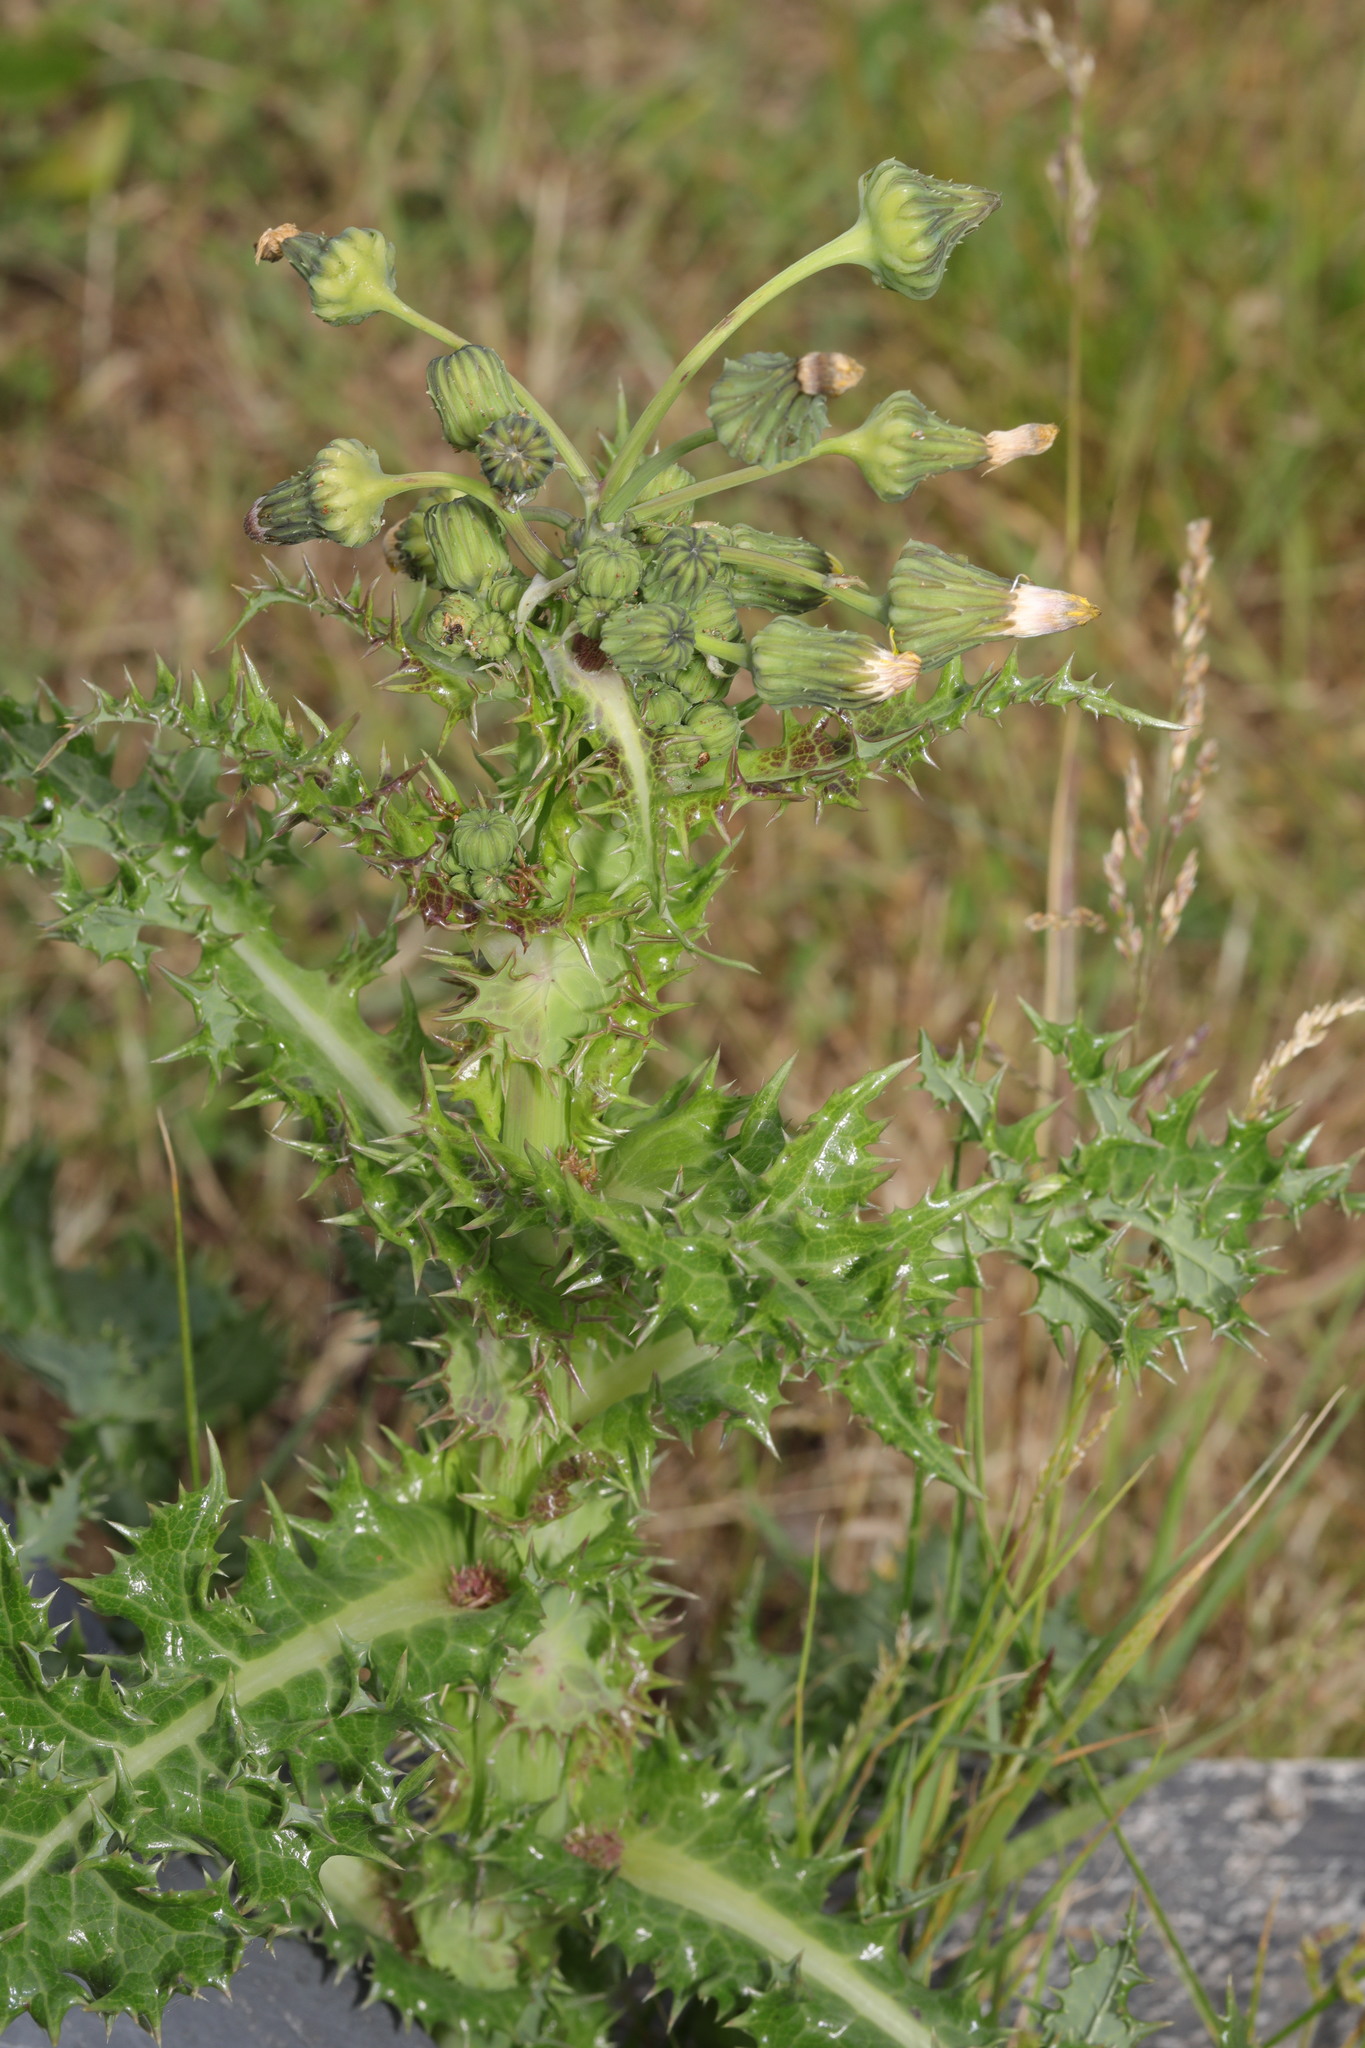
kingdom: Plantae
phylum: Tracheophyta
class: Magnoliopsida
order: Asterales
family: Asteraceae
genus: Sonchus
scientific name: Sonchus asper
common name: Prickly sow-thistle
